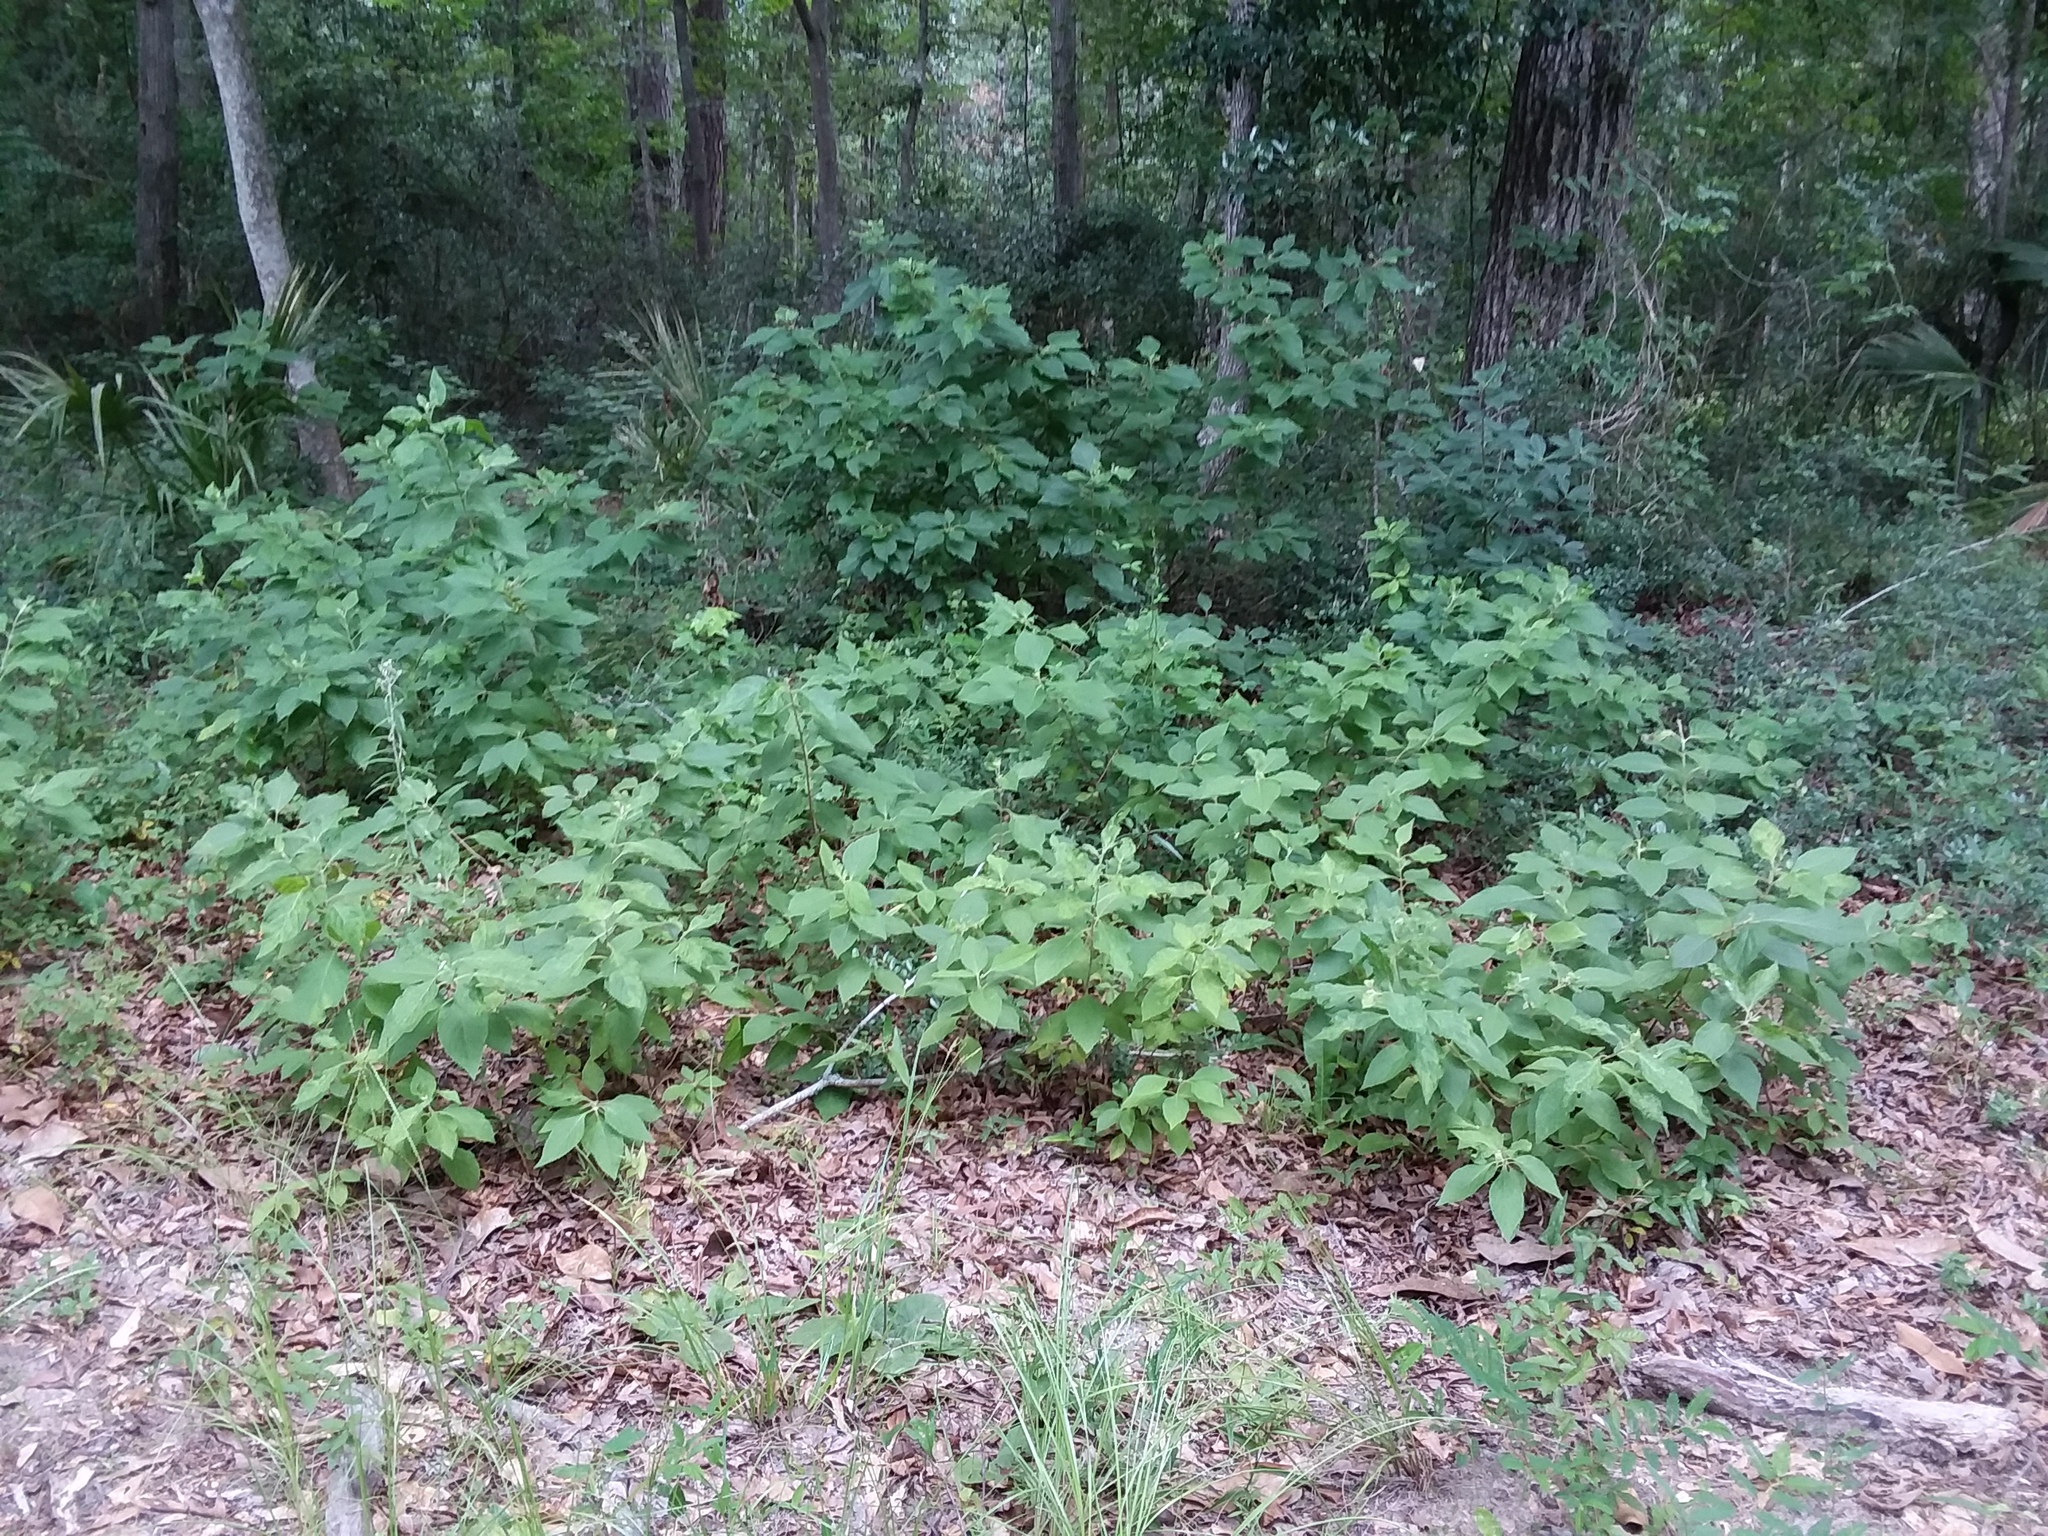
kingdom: Plantae
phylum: Tracheophyta
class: Magnoliopsida
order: Lamiales
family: Lamiaceae
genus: Callicarpa
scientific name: Callicarpa americana
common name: American beautyberry
